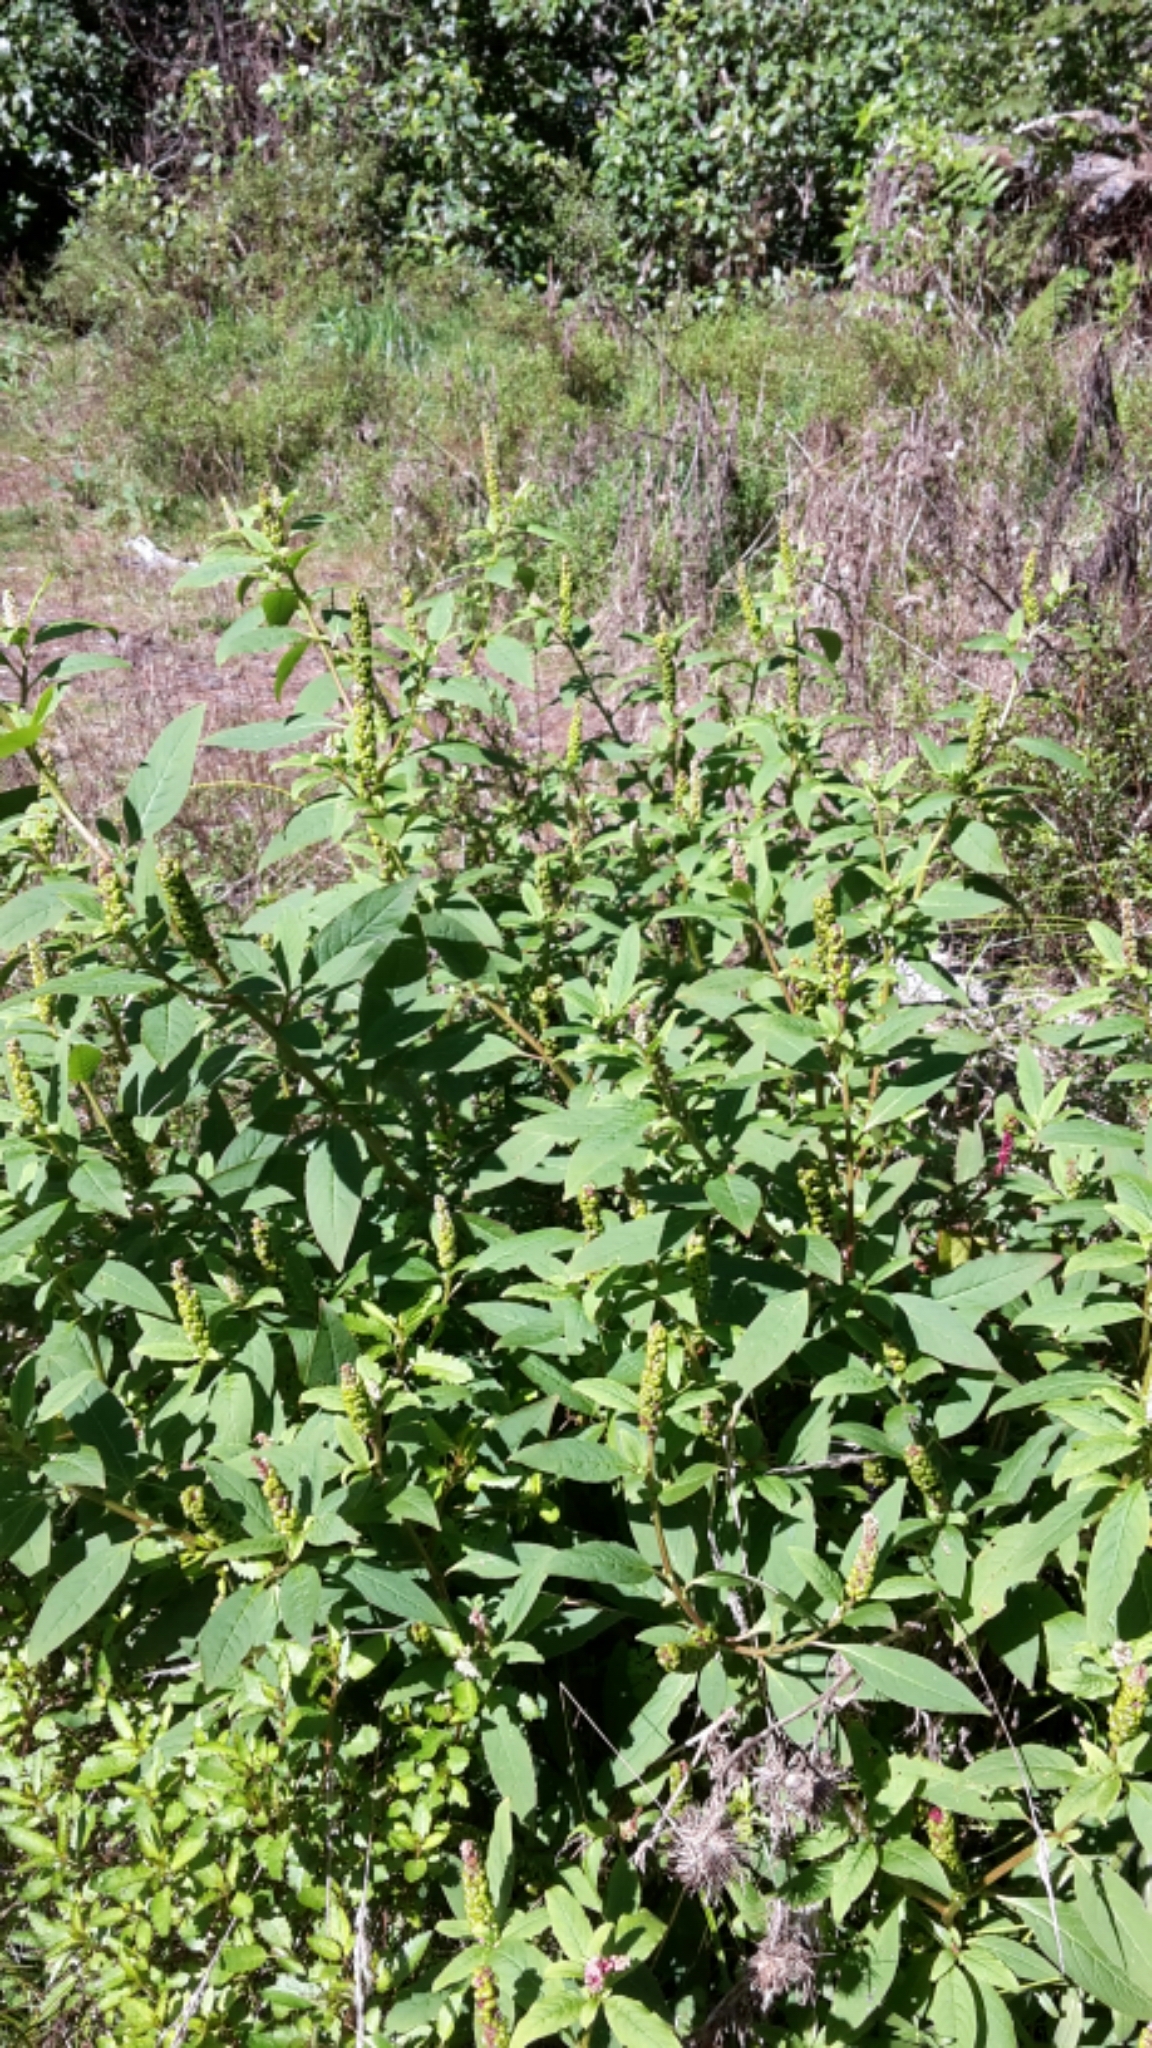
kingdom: Plantae
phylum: Tracheophyta
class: Magnoliopsida
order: Caryophyllales
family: Phytolaccaceae
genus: Phytolacca
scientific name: Phytolacca icosandra
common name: Button pokeweed
